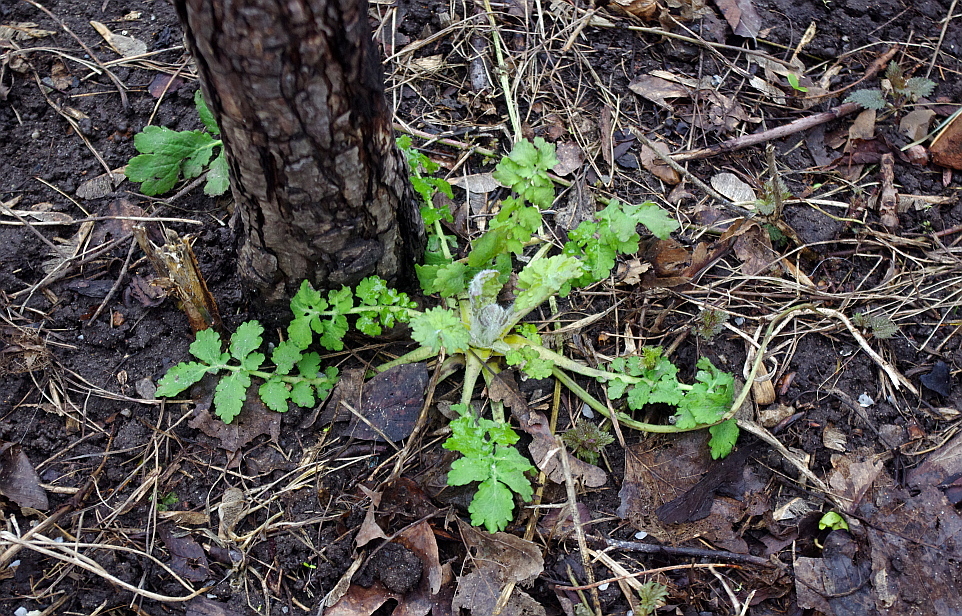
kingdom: Plantae
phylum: Tracheophyta
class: Magnoliopsida
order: Ranunculales
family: Papaveraceae
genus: Chelidonium
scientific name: Chelidonium majus
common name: Greater celandine
